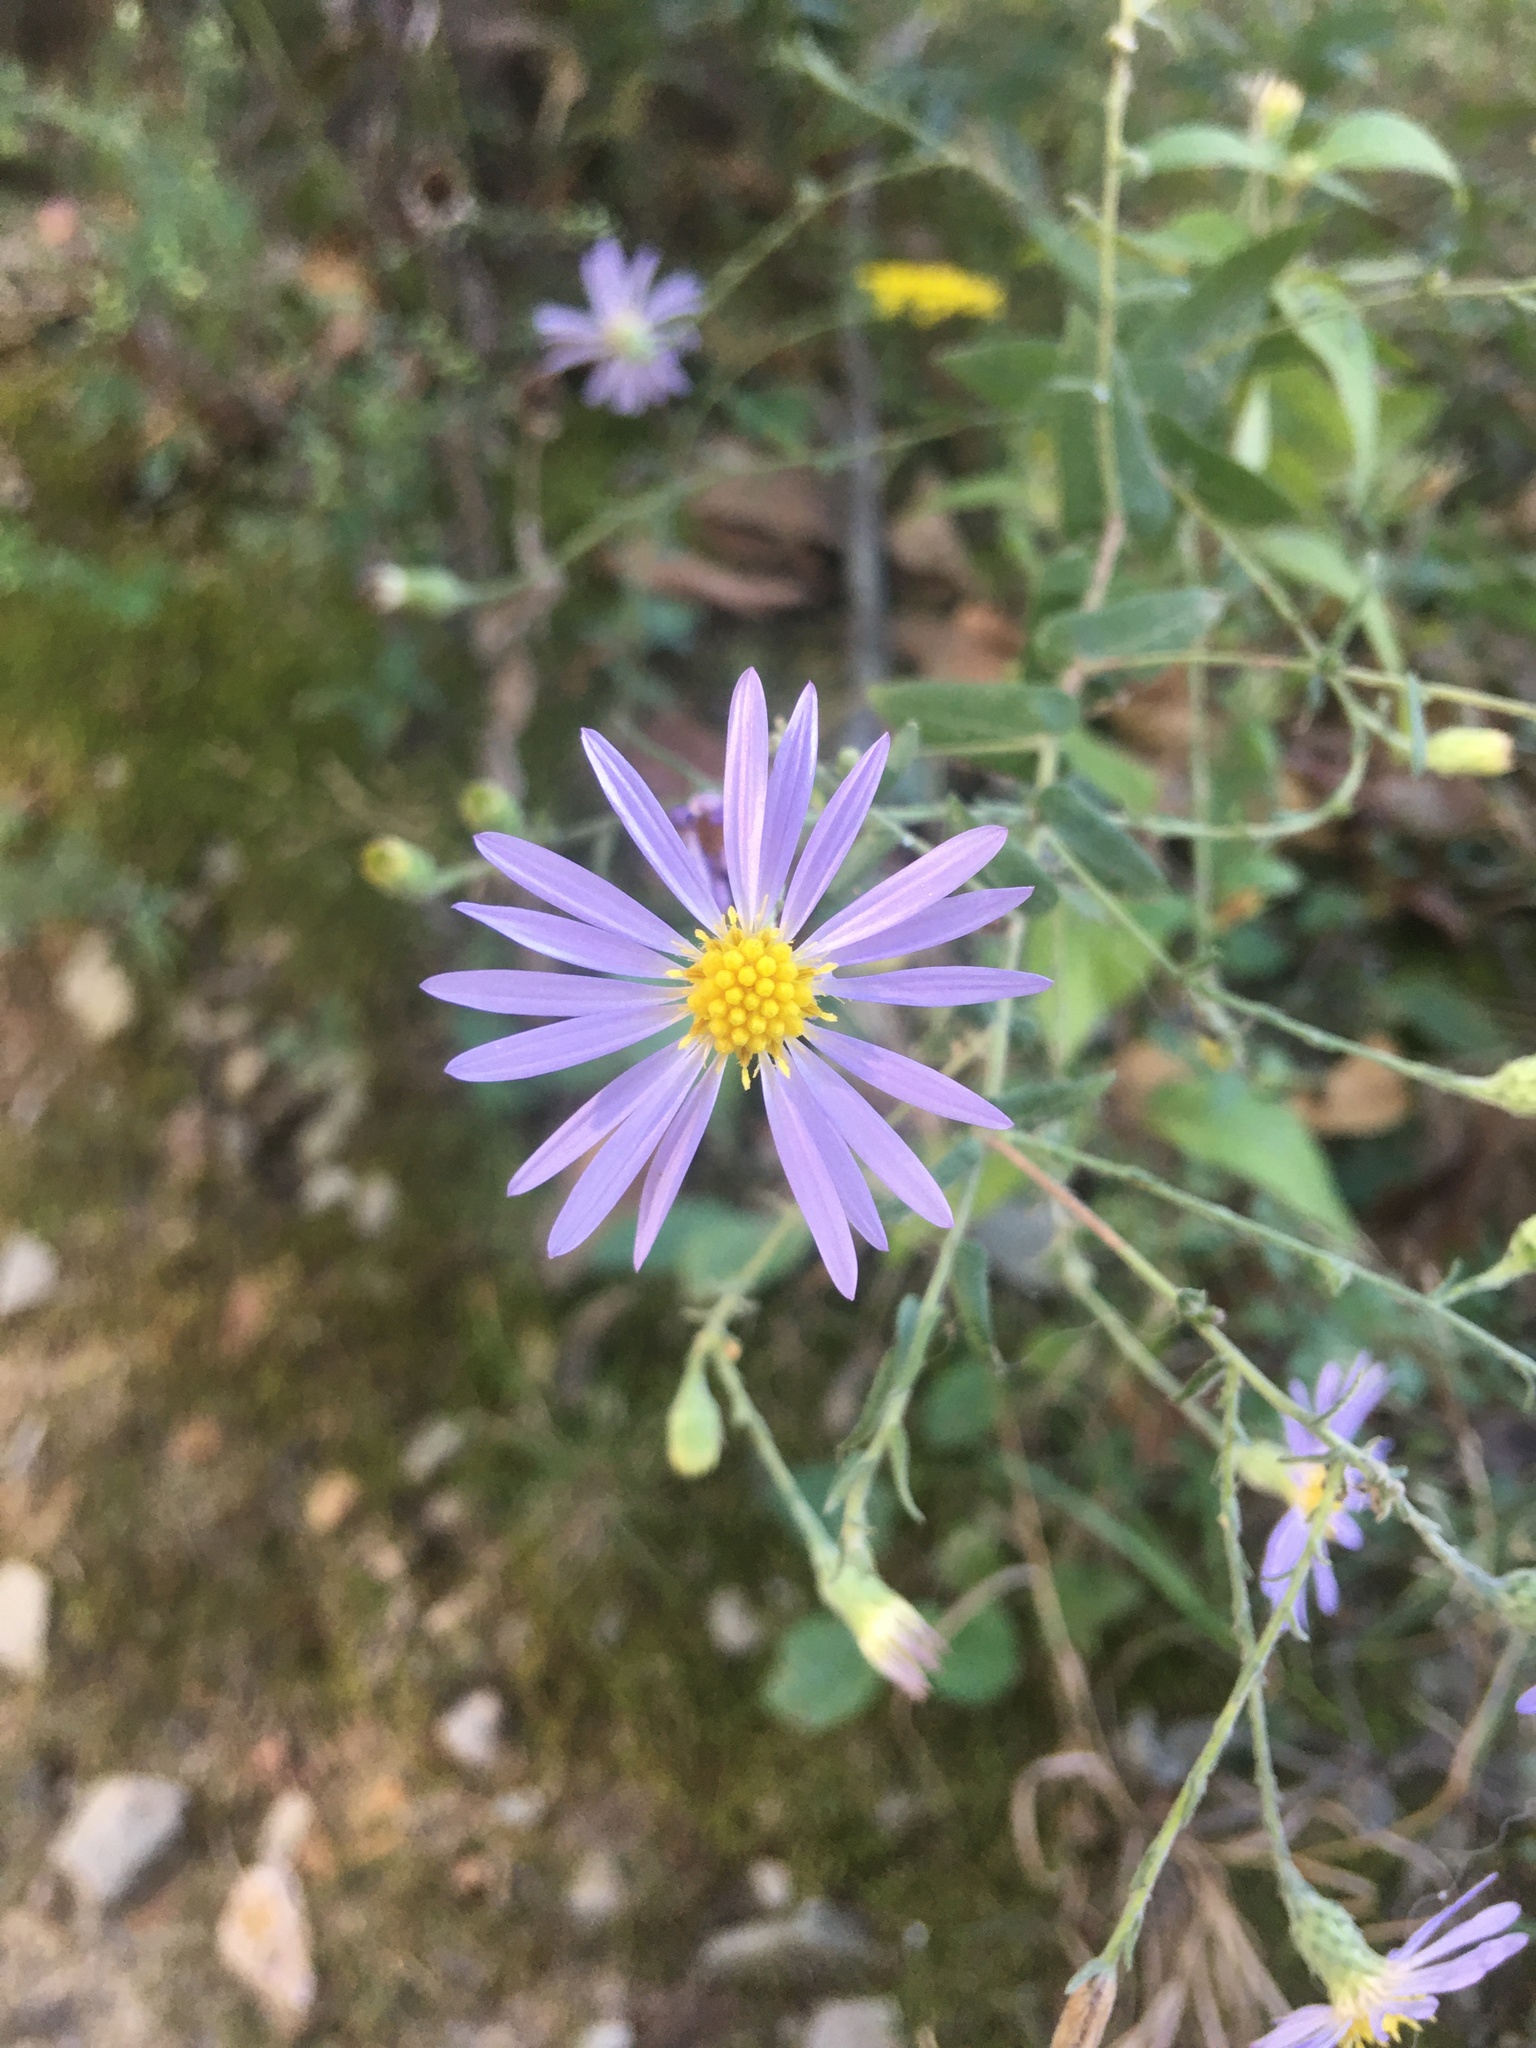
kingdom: Plantae
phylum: Tracheophyta
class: Magnoliopsida
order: Asterales
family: Asteraceae
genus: Symphyotrichum
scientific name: Symphyotrichum patens
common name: Late purple aster
